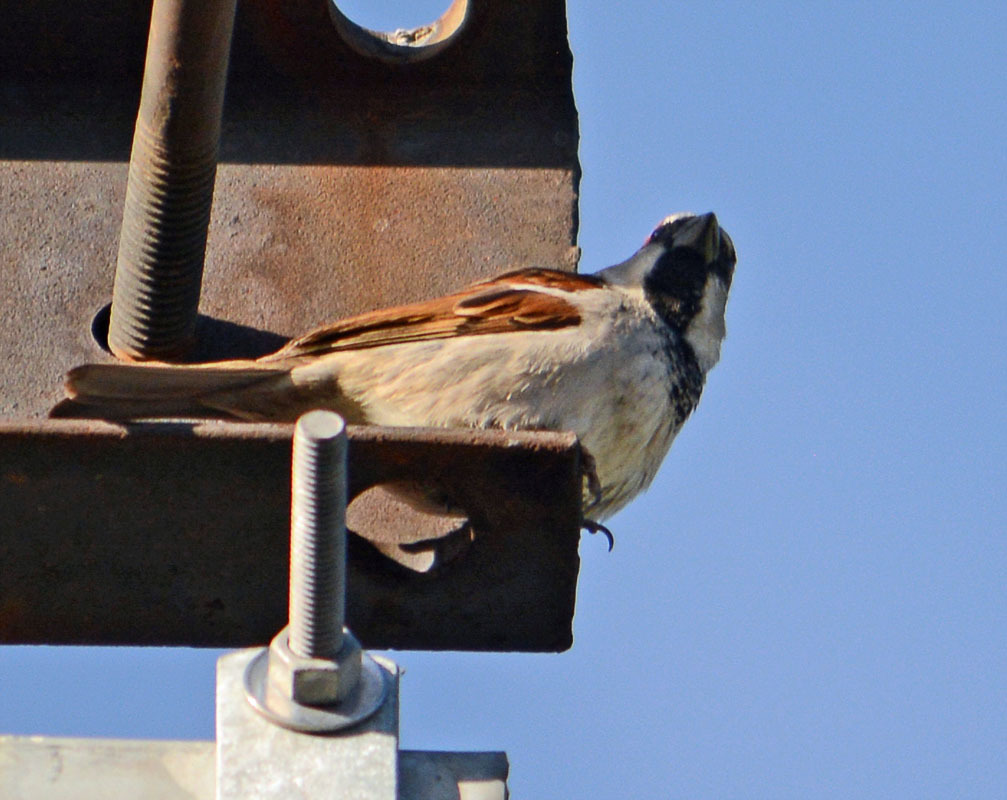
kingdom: Animalia
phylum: Chordata
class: Aves
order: Passeriformes
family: Passeridae
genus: Passer
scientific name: Passer domesticus
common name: House sparrow
